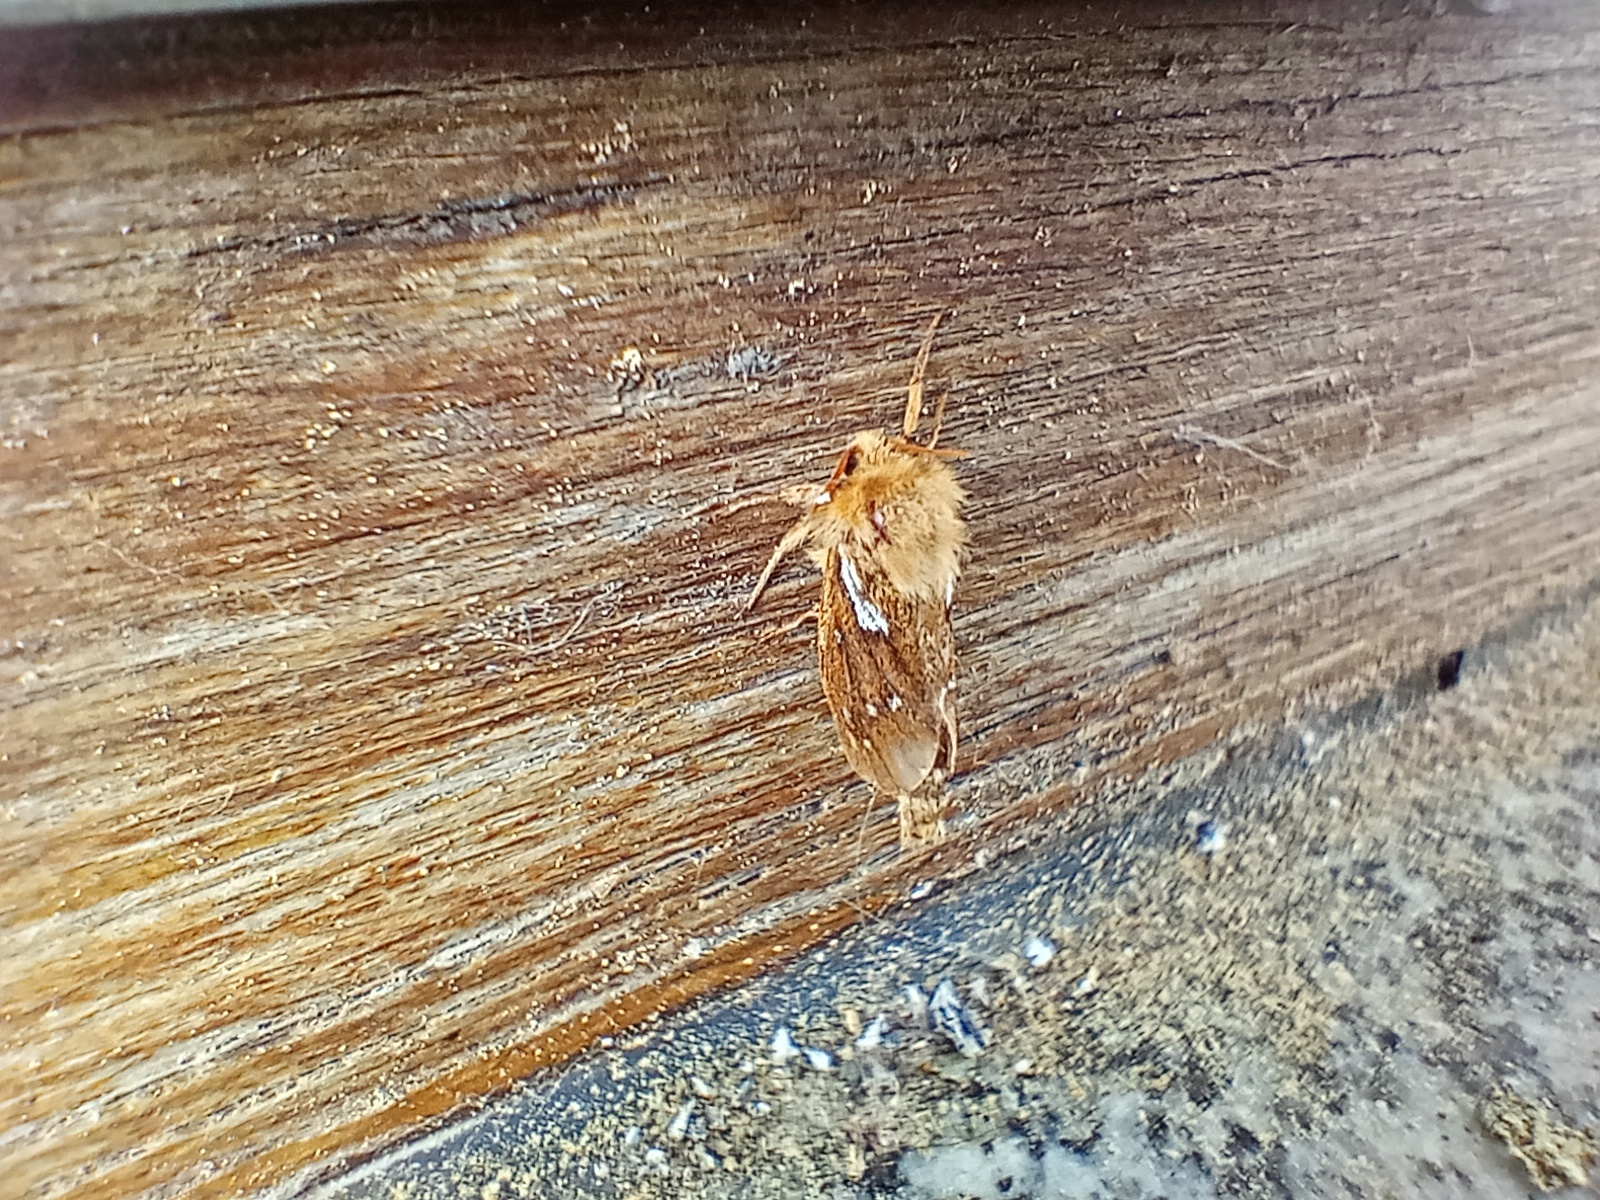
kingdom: Animalia
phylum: Arthropoda
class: Insecta
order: Lepidoptera
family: Hepialidae
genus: Korscheltellus
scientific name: Korscheltellus lupulina
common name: Common swift
